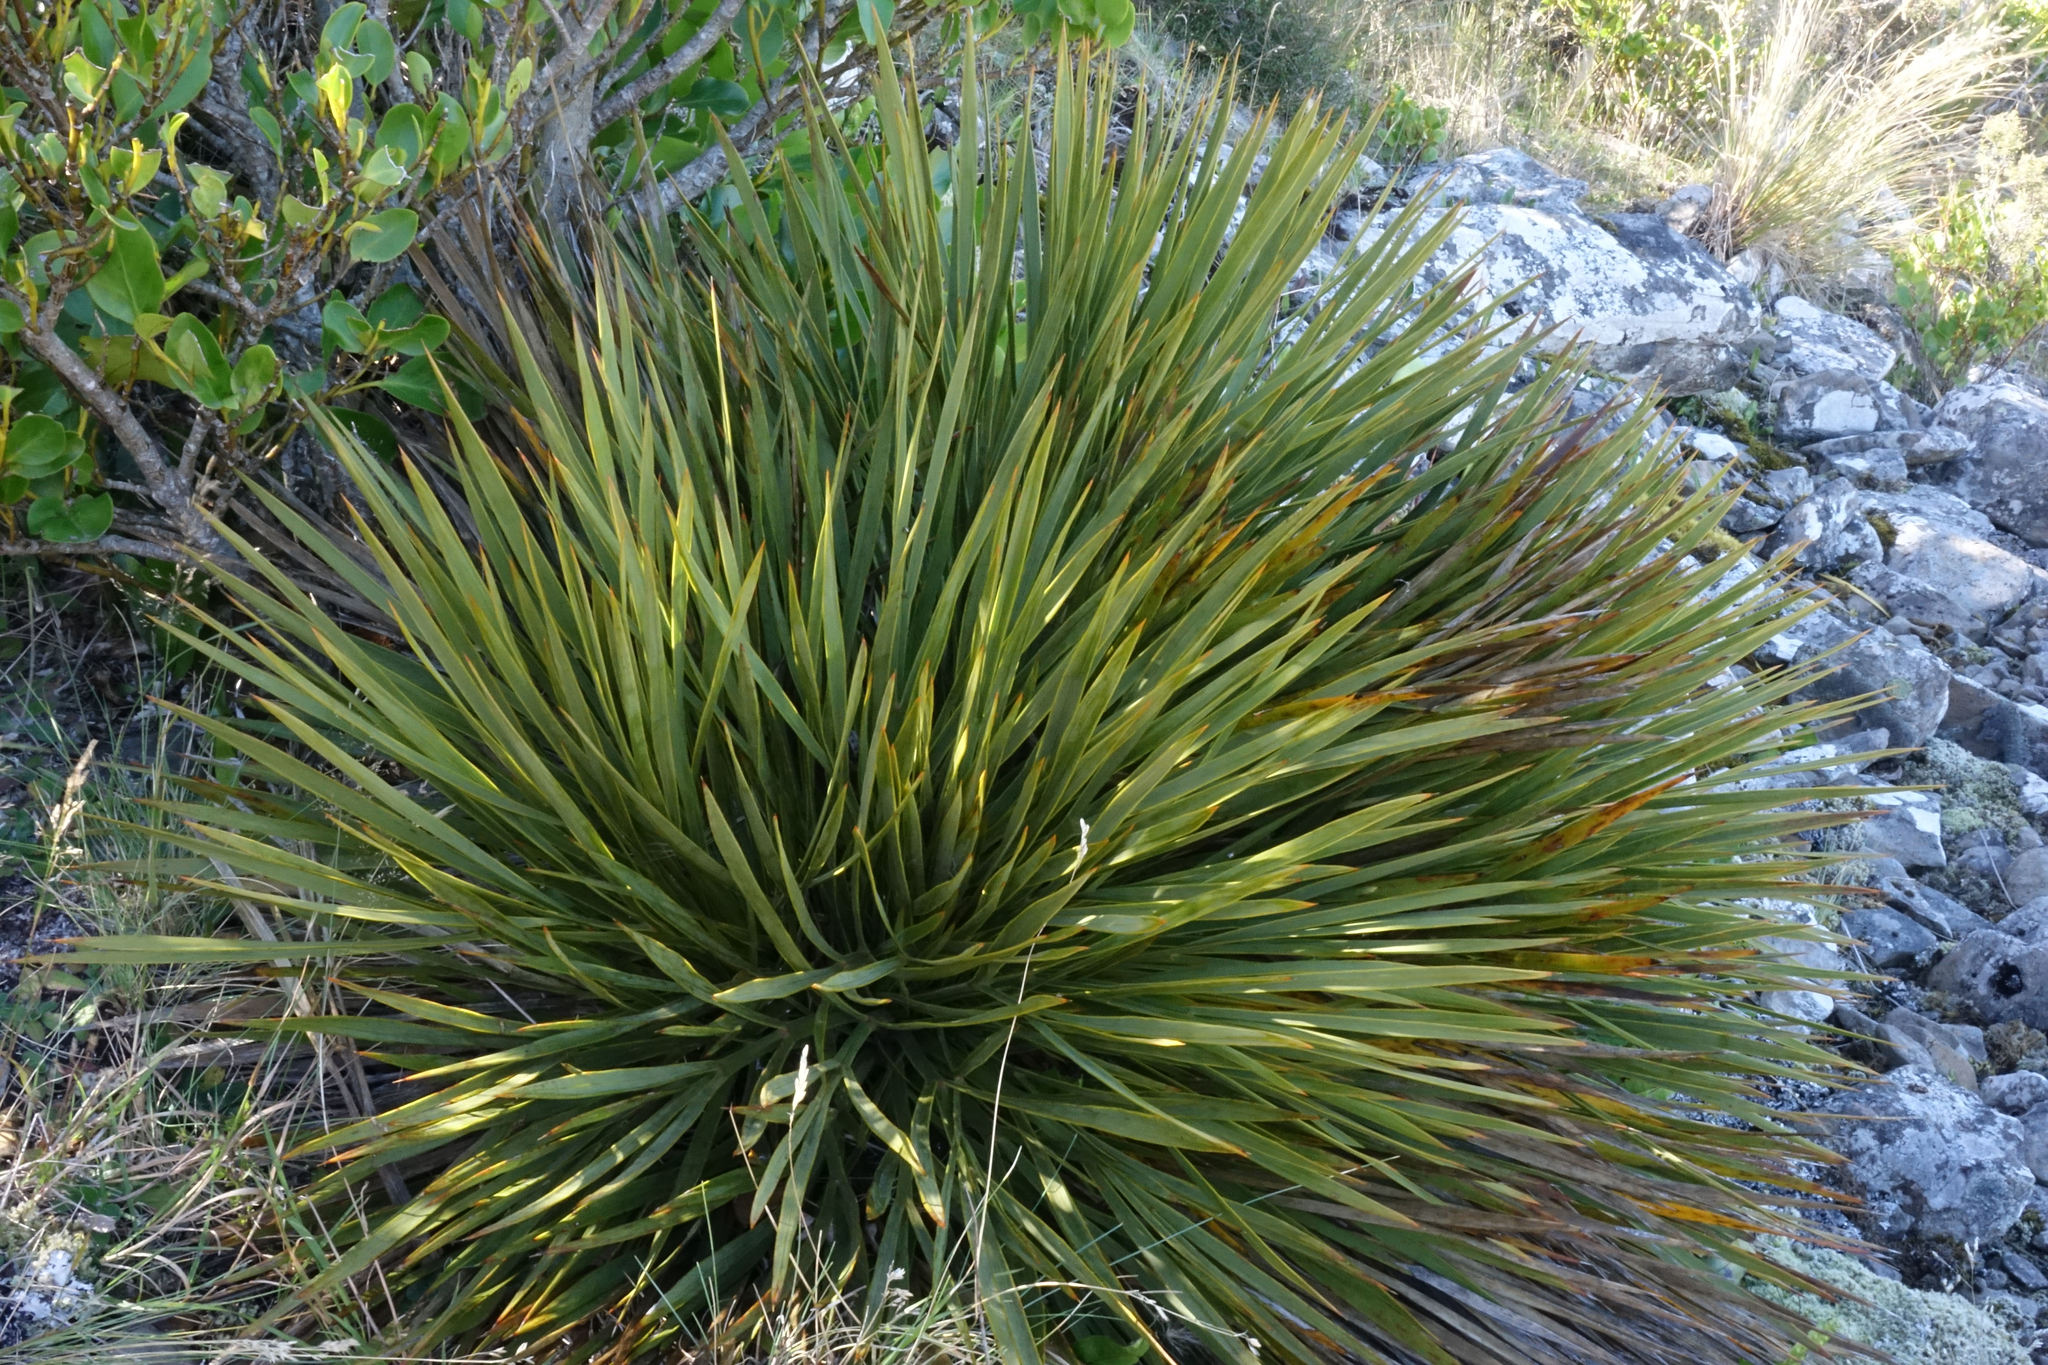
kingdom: Plantae
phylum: Tracheophyta
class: Magnoliopsida
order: Apiales
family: Apiaceae
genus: Aciphylla
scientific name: Aciphylla aurea
